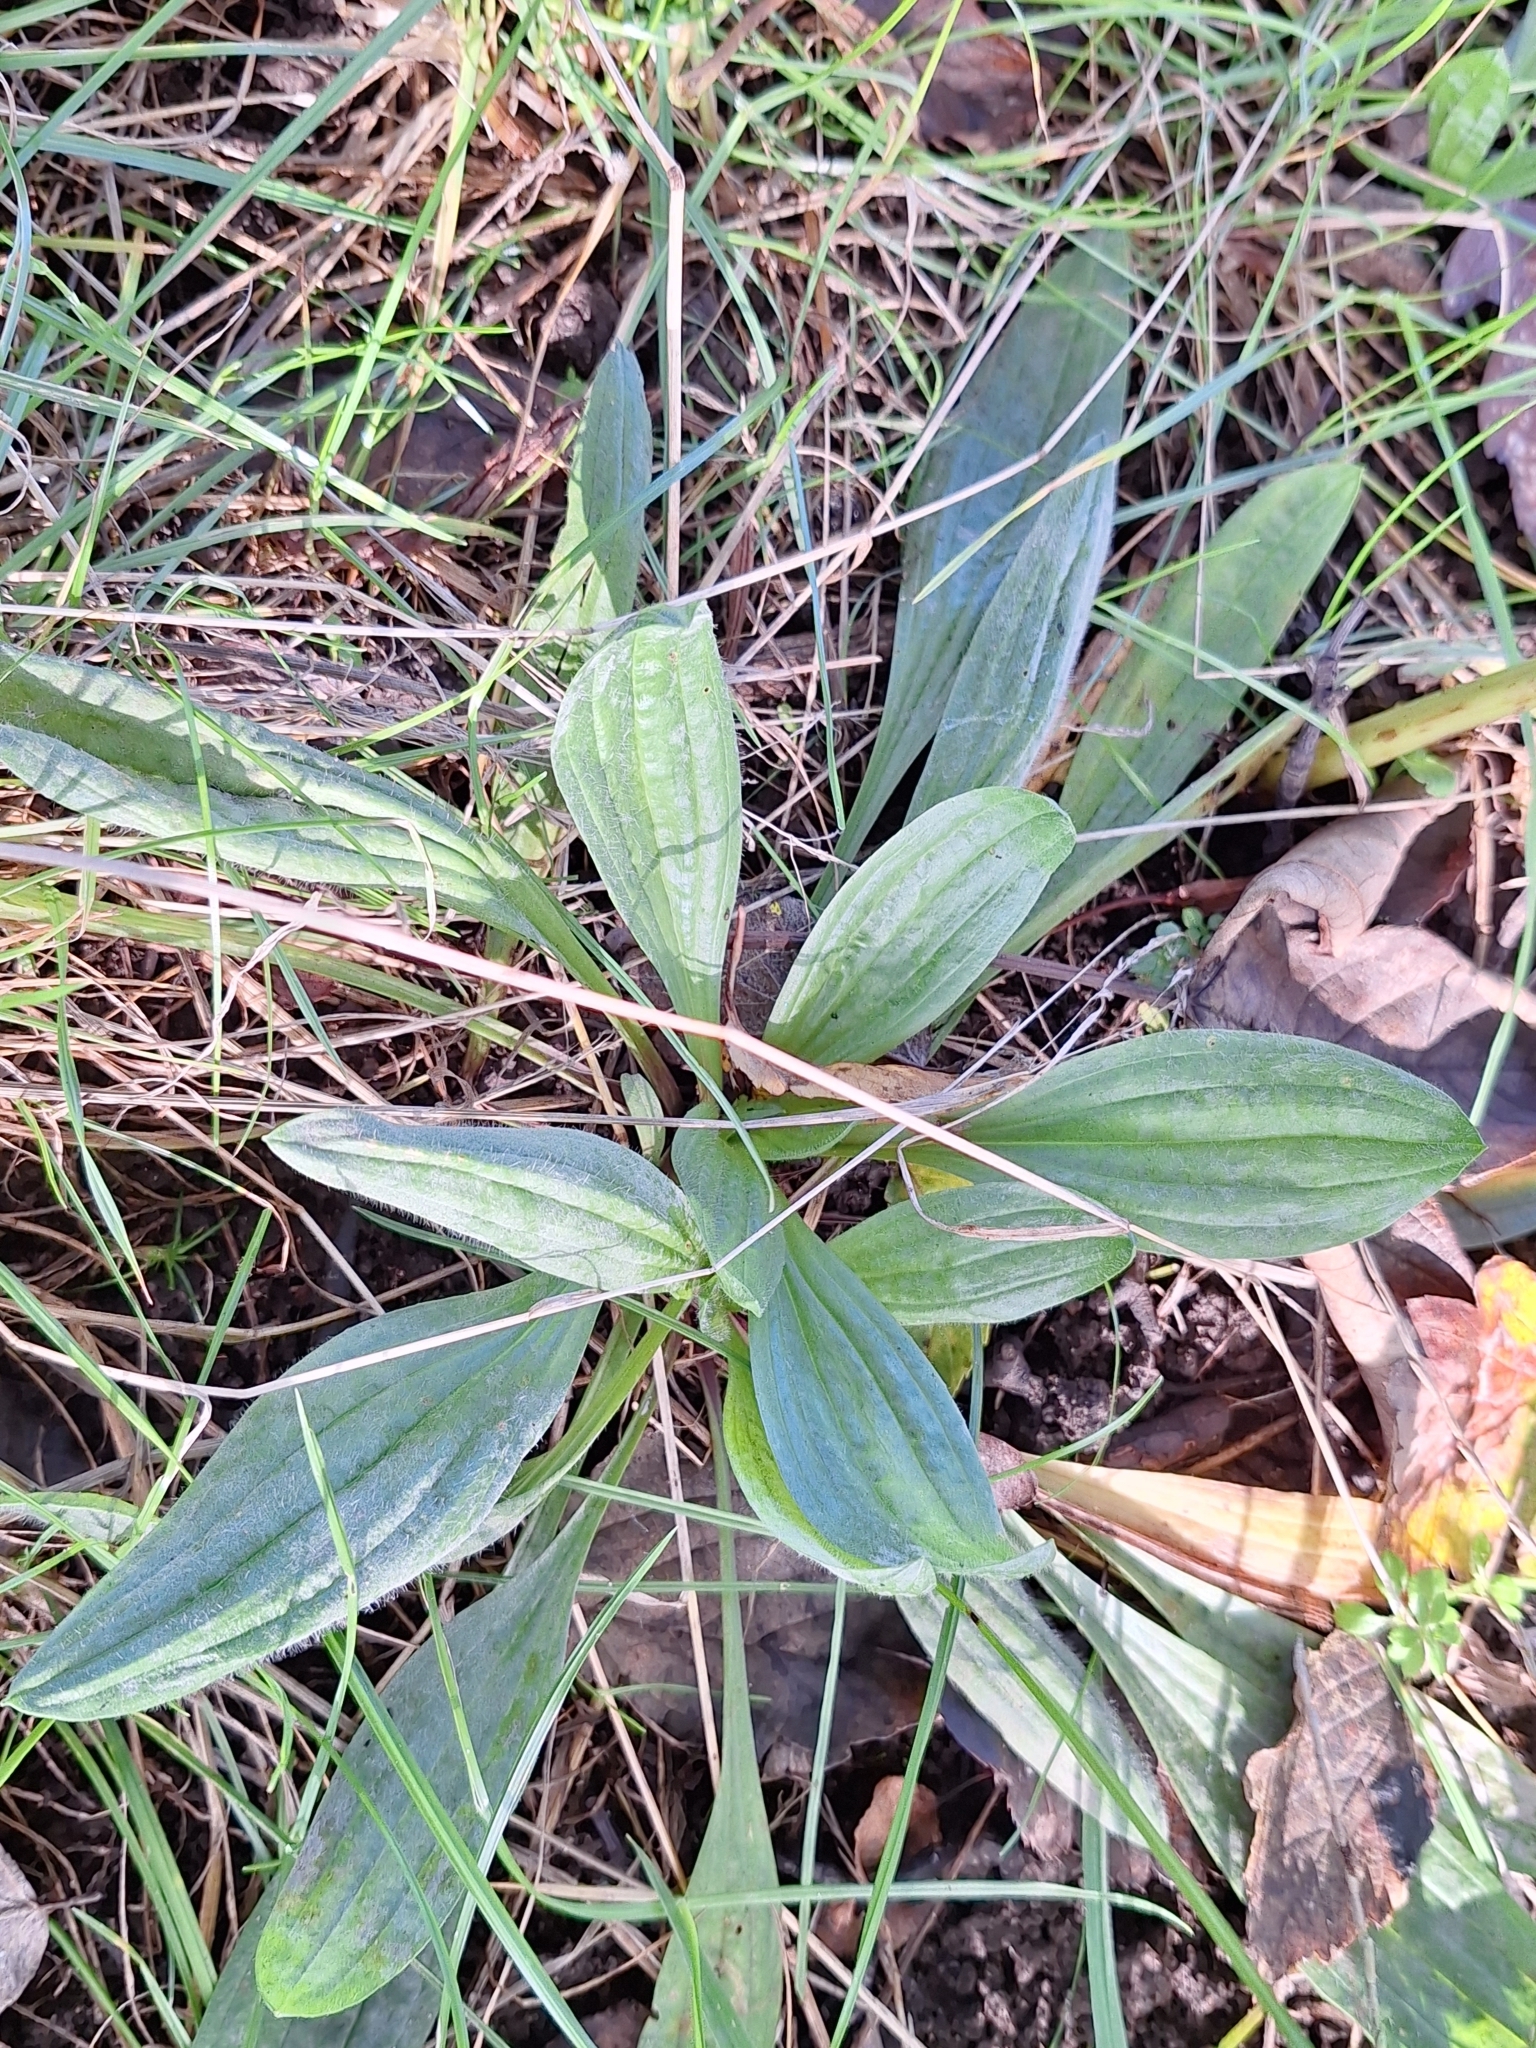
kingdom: Plantae
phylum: Tracheophyta
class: Magnoliopsida
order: Lamiales
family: Plantaginaceae
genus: Plantago
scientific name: Plantago lanceolata
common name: Ribwort plantain
